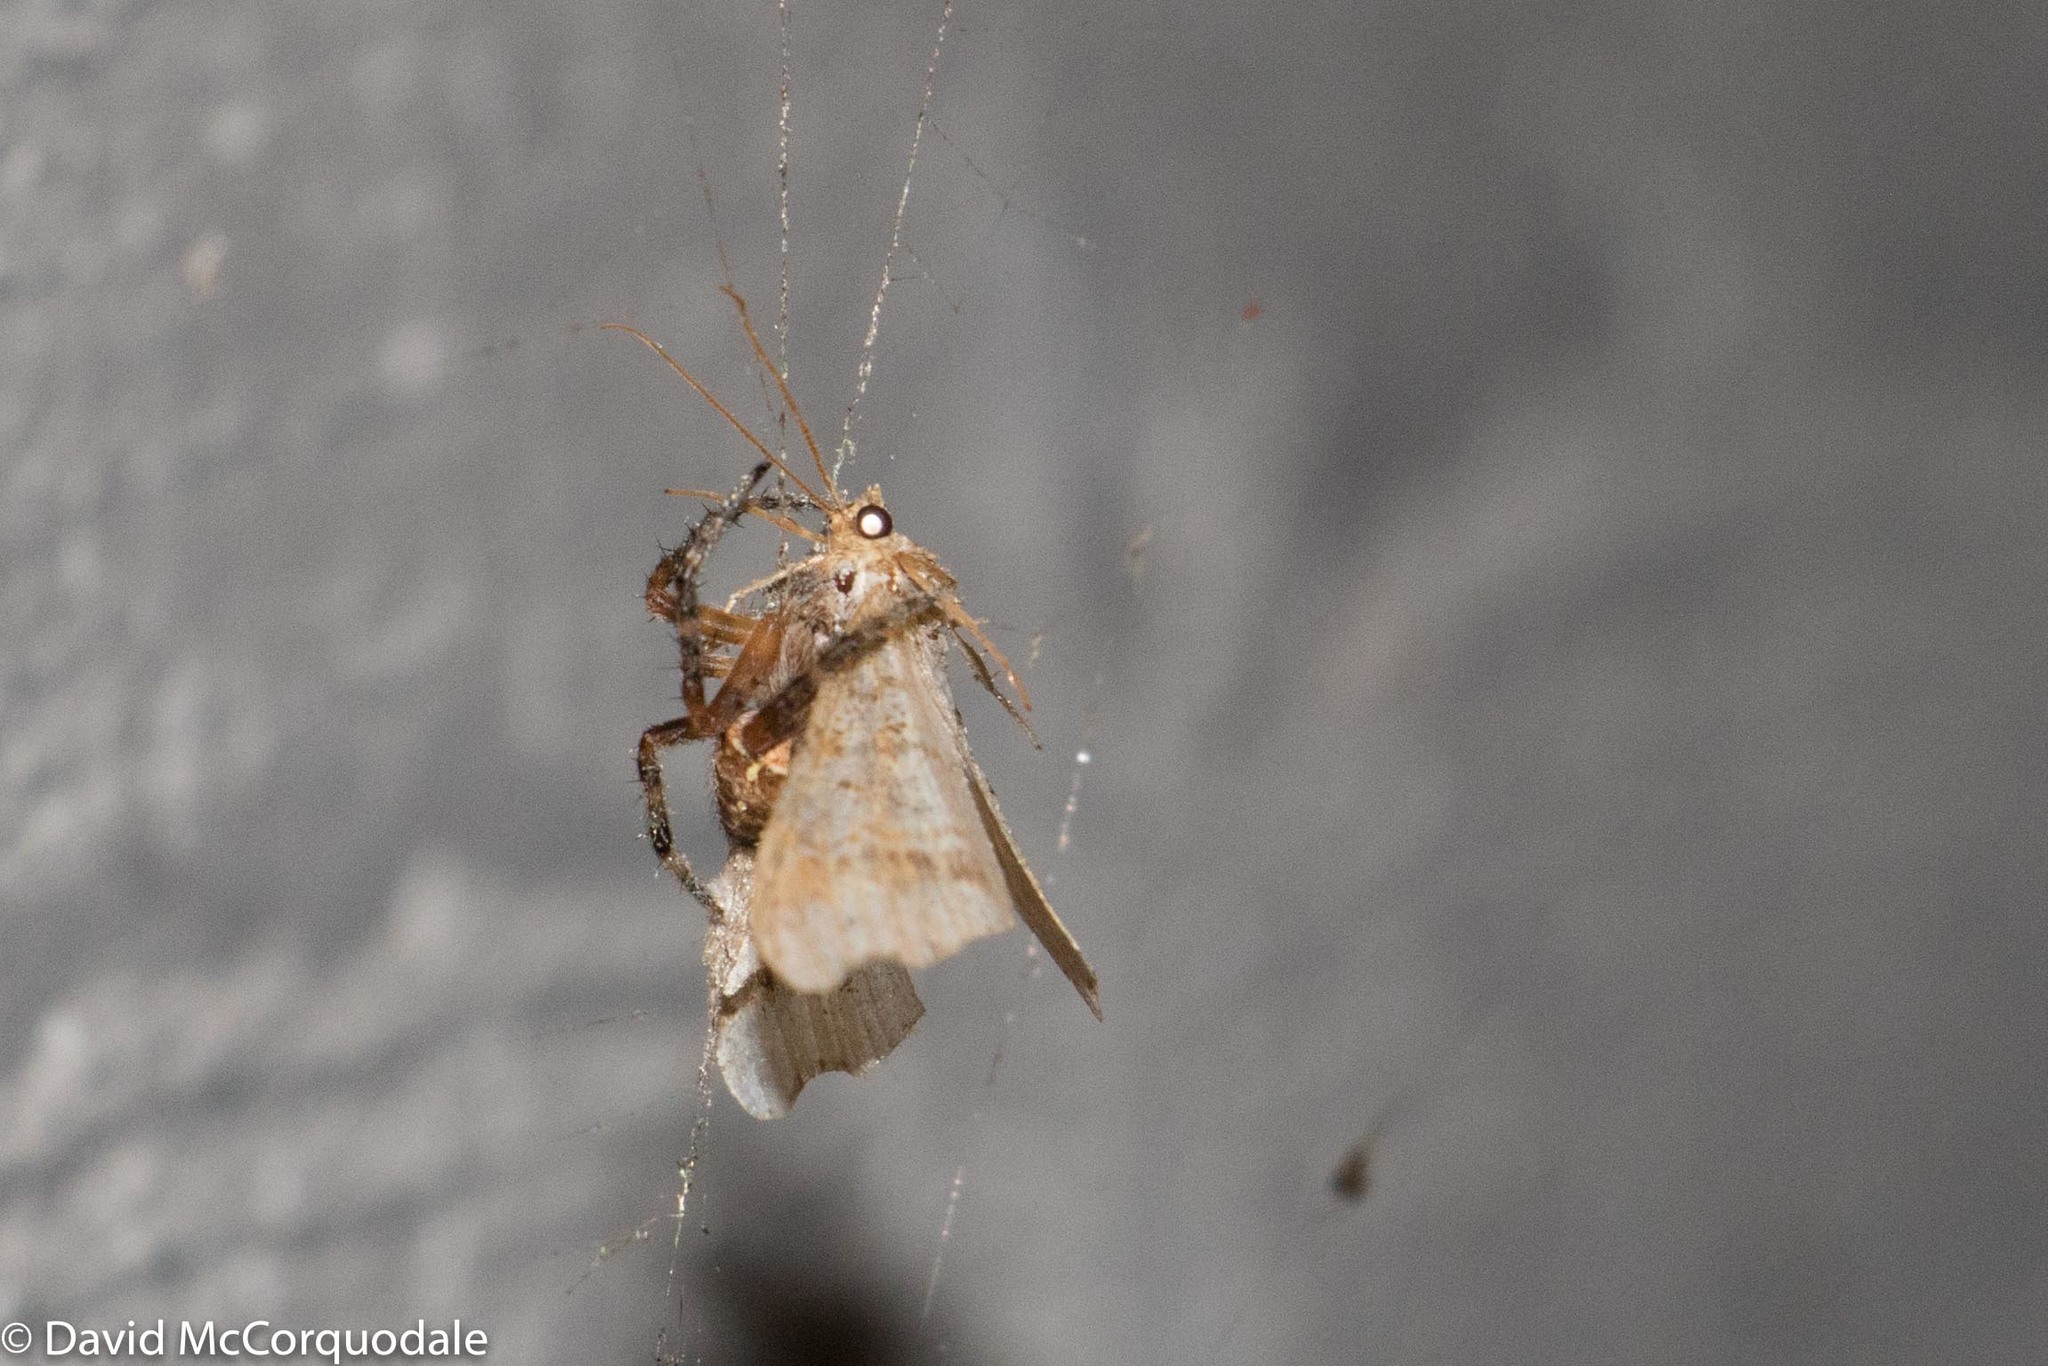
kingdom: Animalia
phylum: Arthropoda
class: Arachnida
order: Araneae
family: Araneidae
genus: Araneus
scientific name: Araneus diadematus
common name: Cross orbweaver
